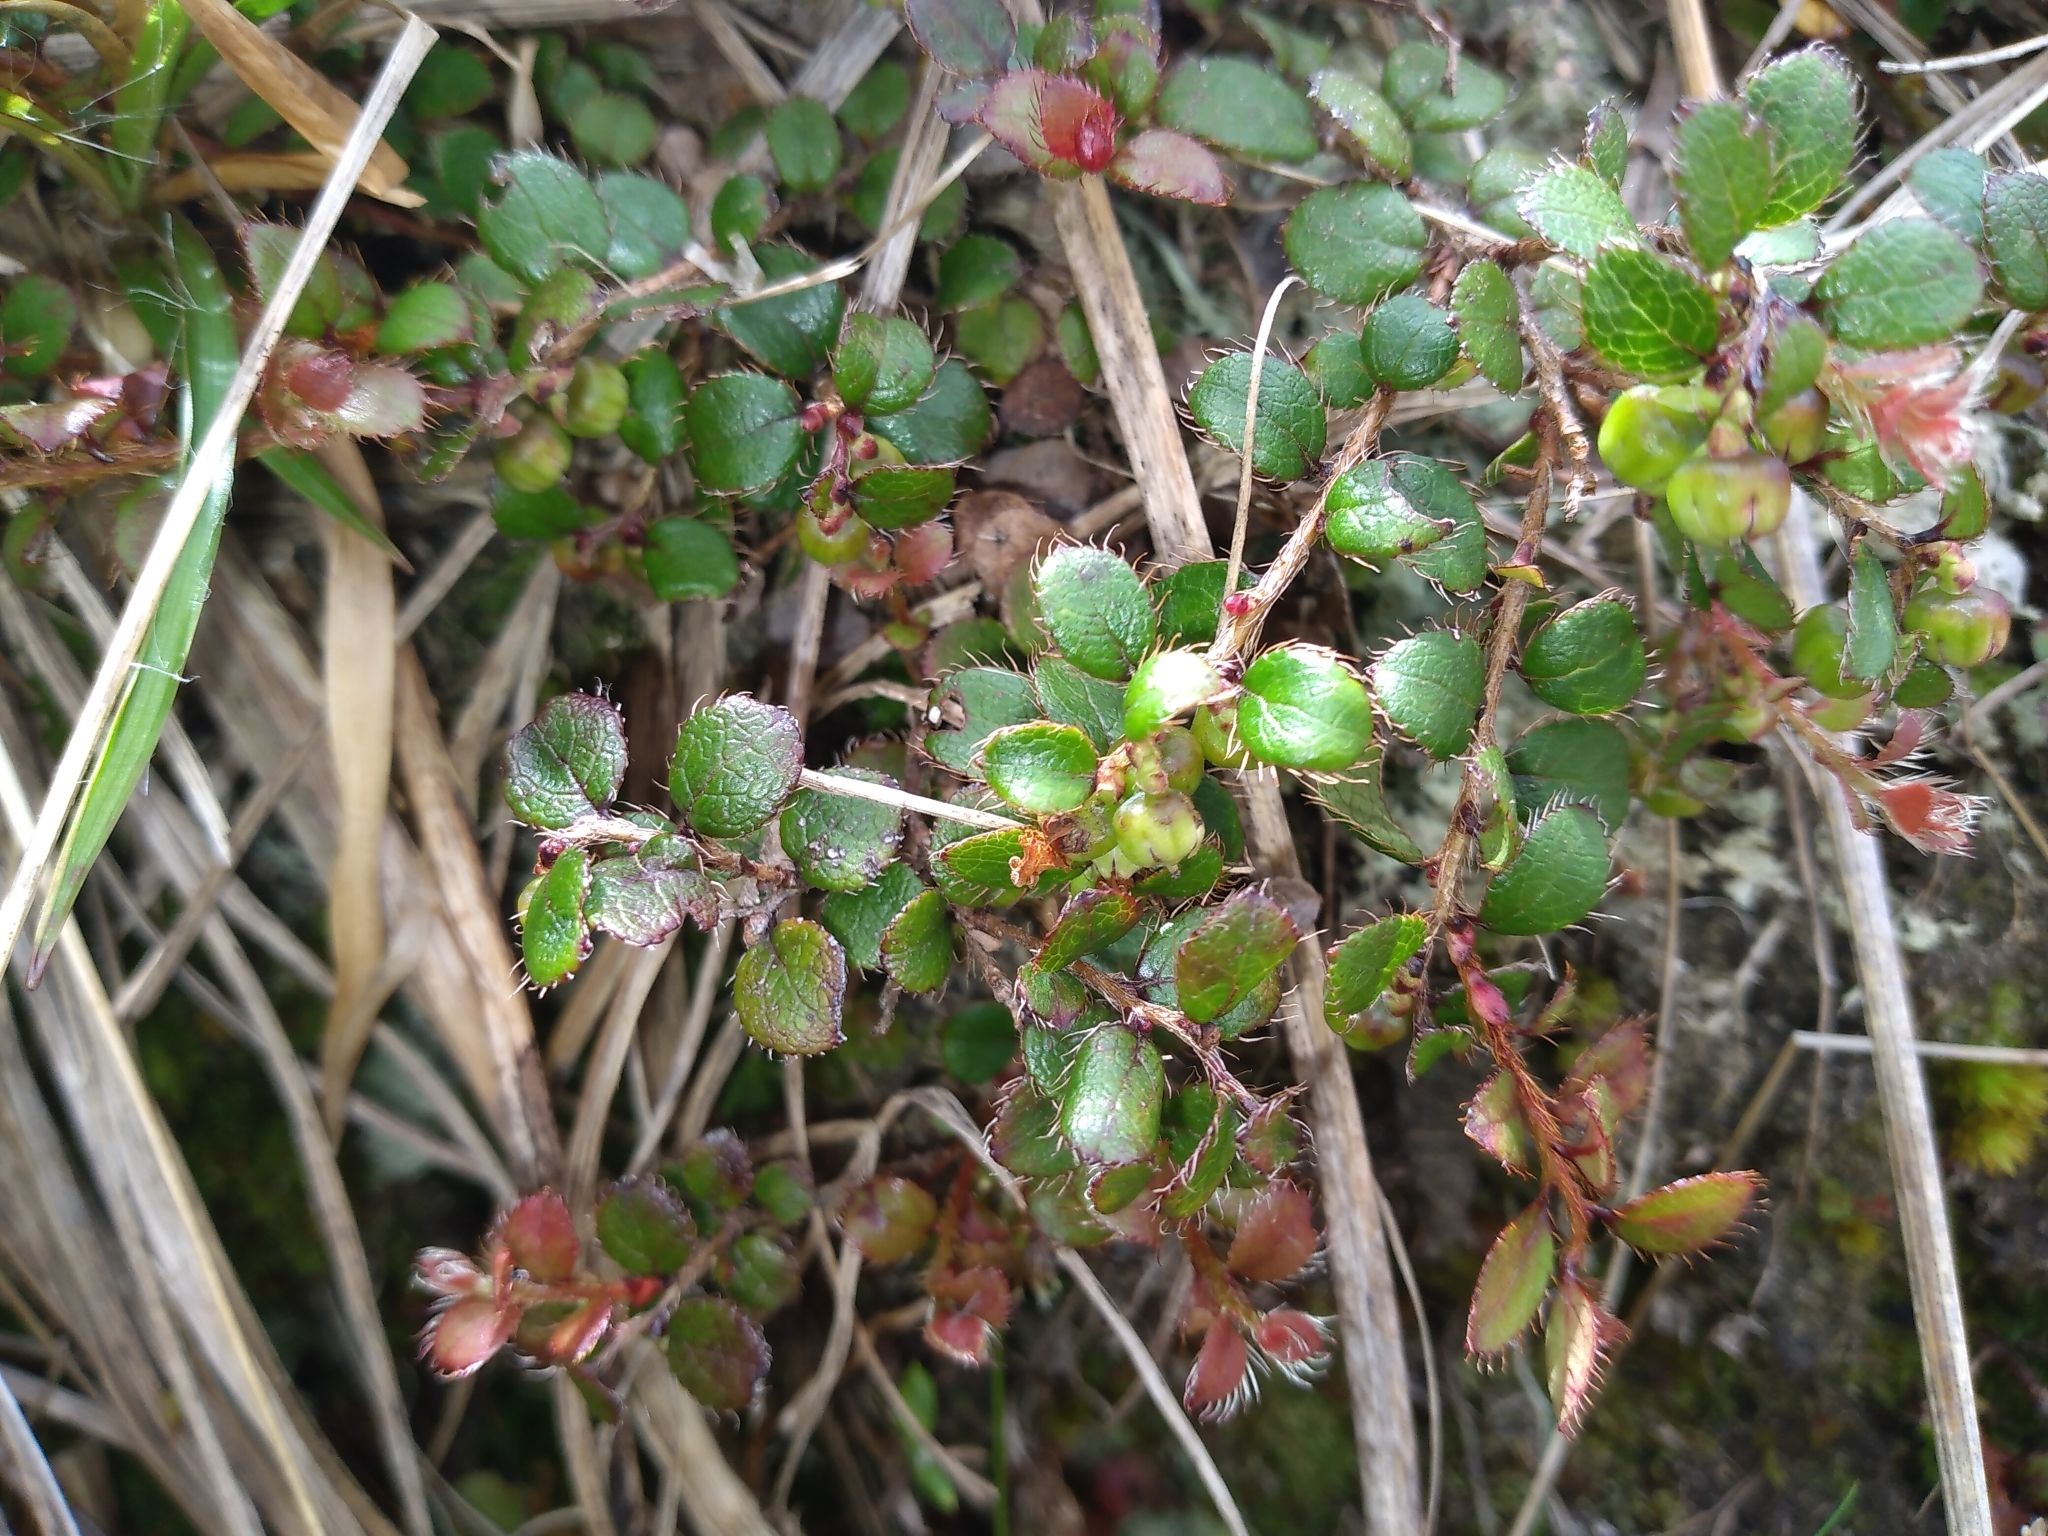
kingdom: Plantae
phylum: Tracheophyta
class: Magnoliopsida
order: Ericales
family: Ericaceae
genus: Gaultheria
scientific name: Gaultheria depressa
